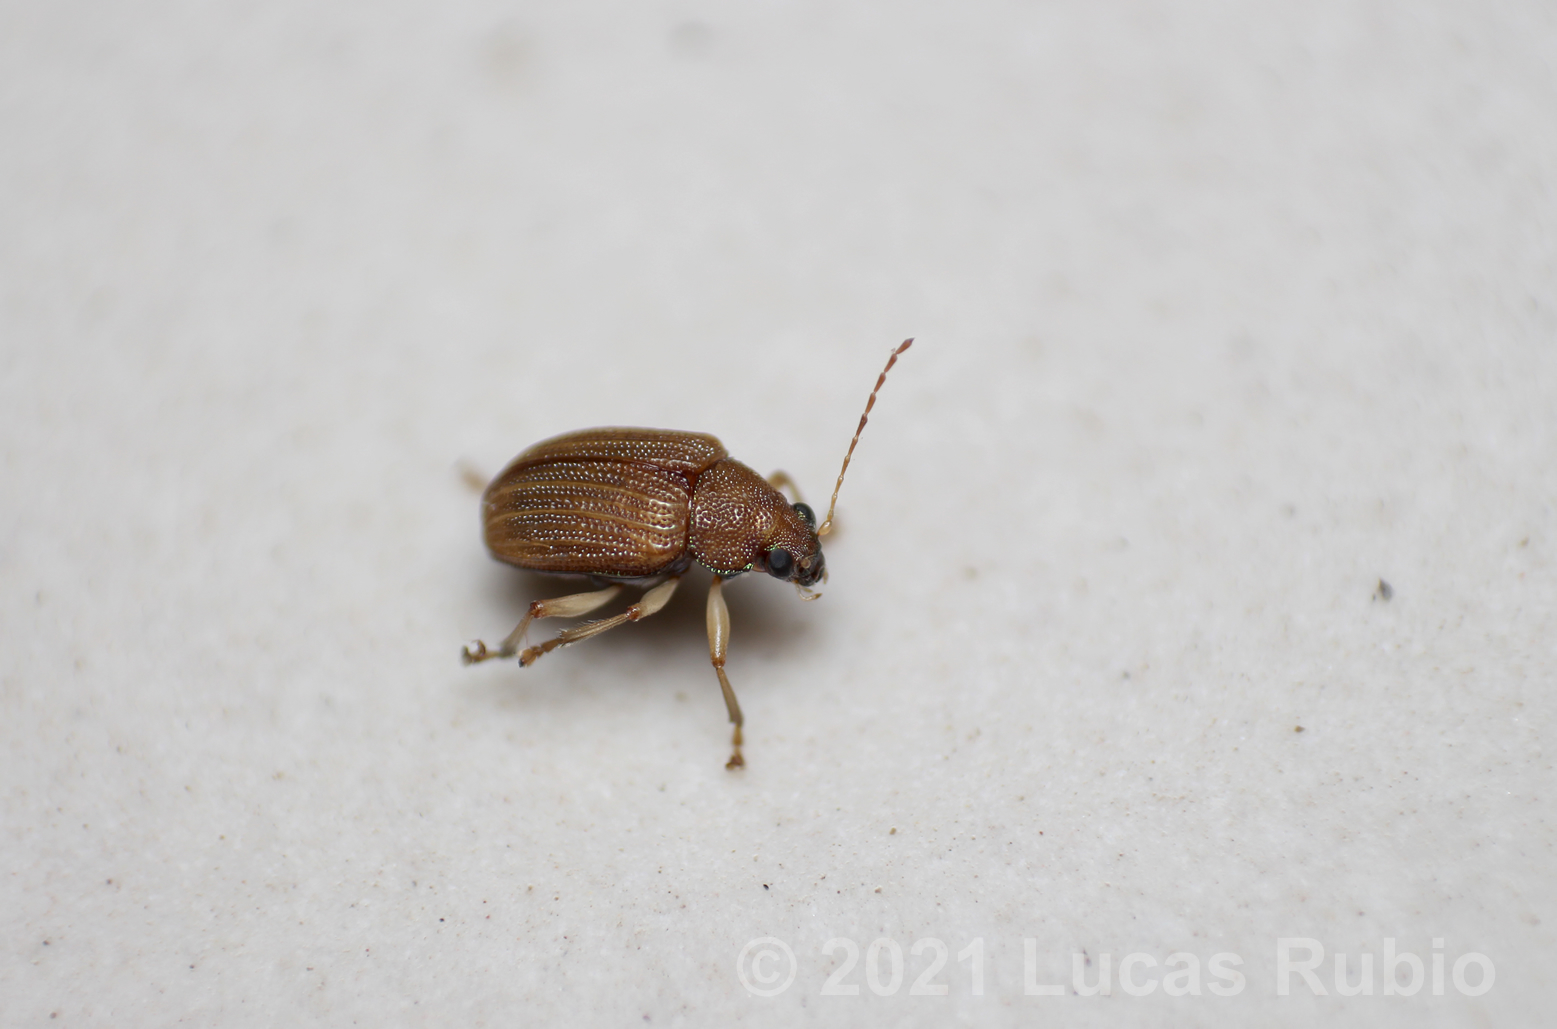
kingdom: Animalia
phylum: Arthropoda
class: Insecta
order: Coleoptera
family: Chrysomelidae
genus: Colaspis
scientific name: Colaspis
